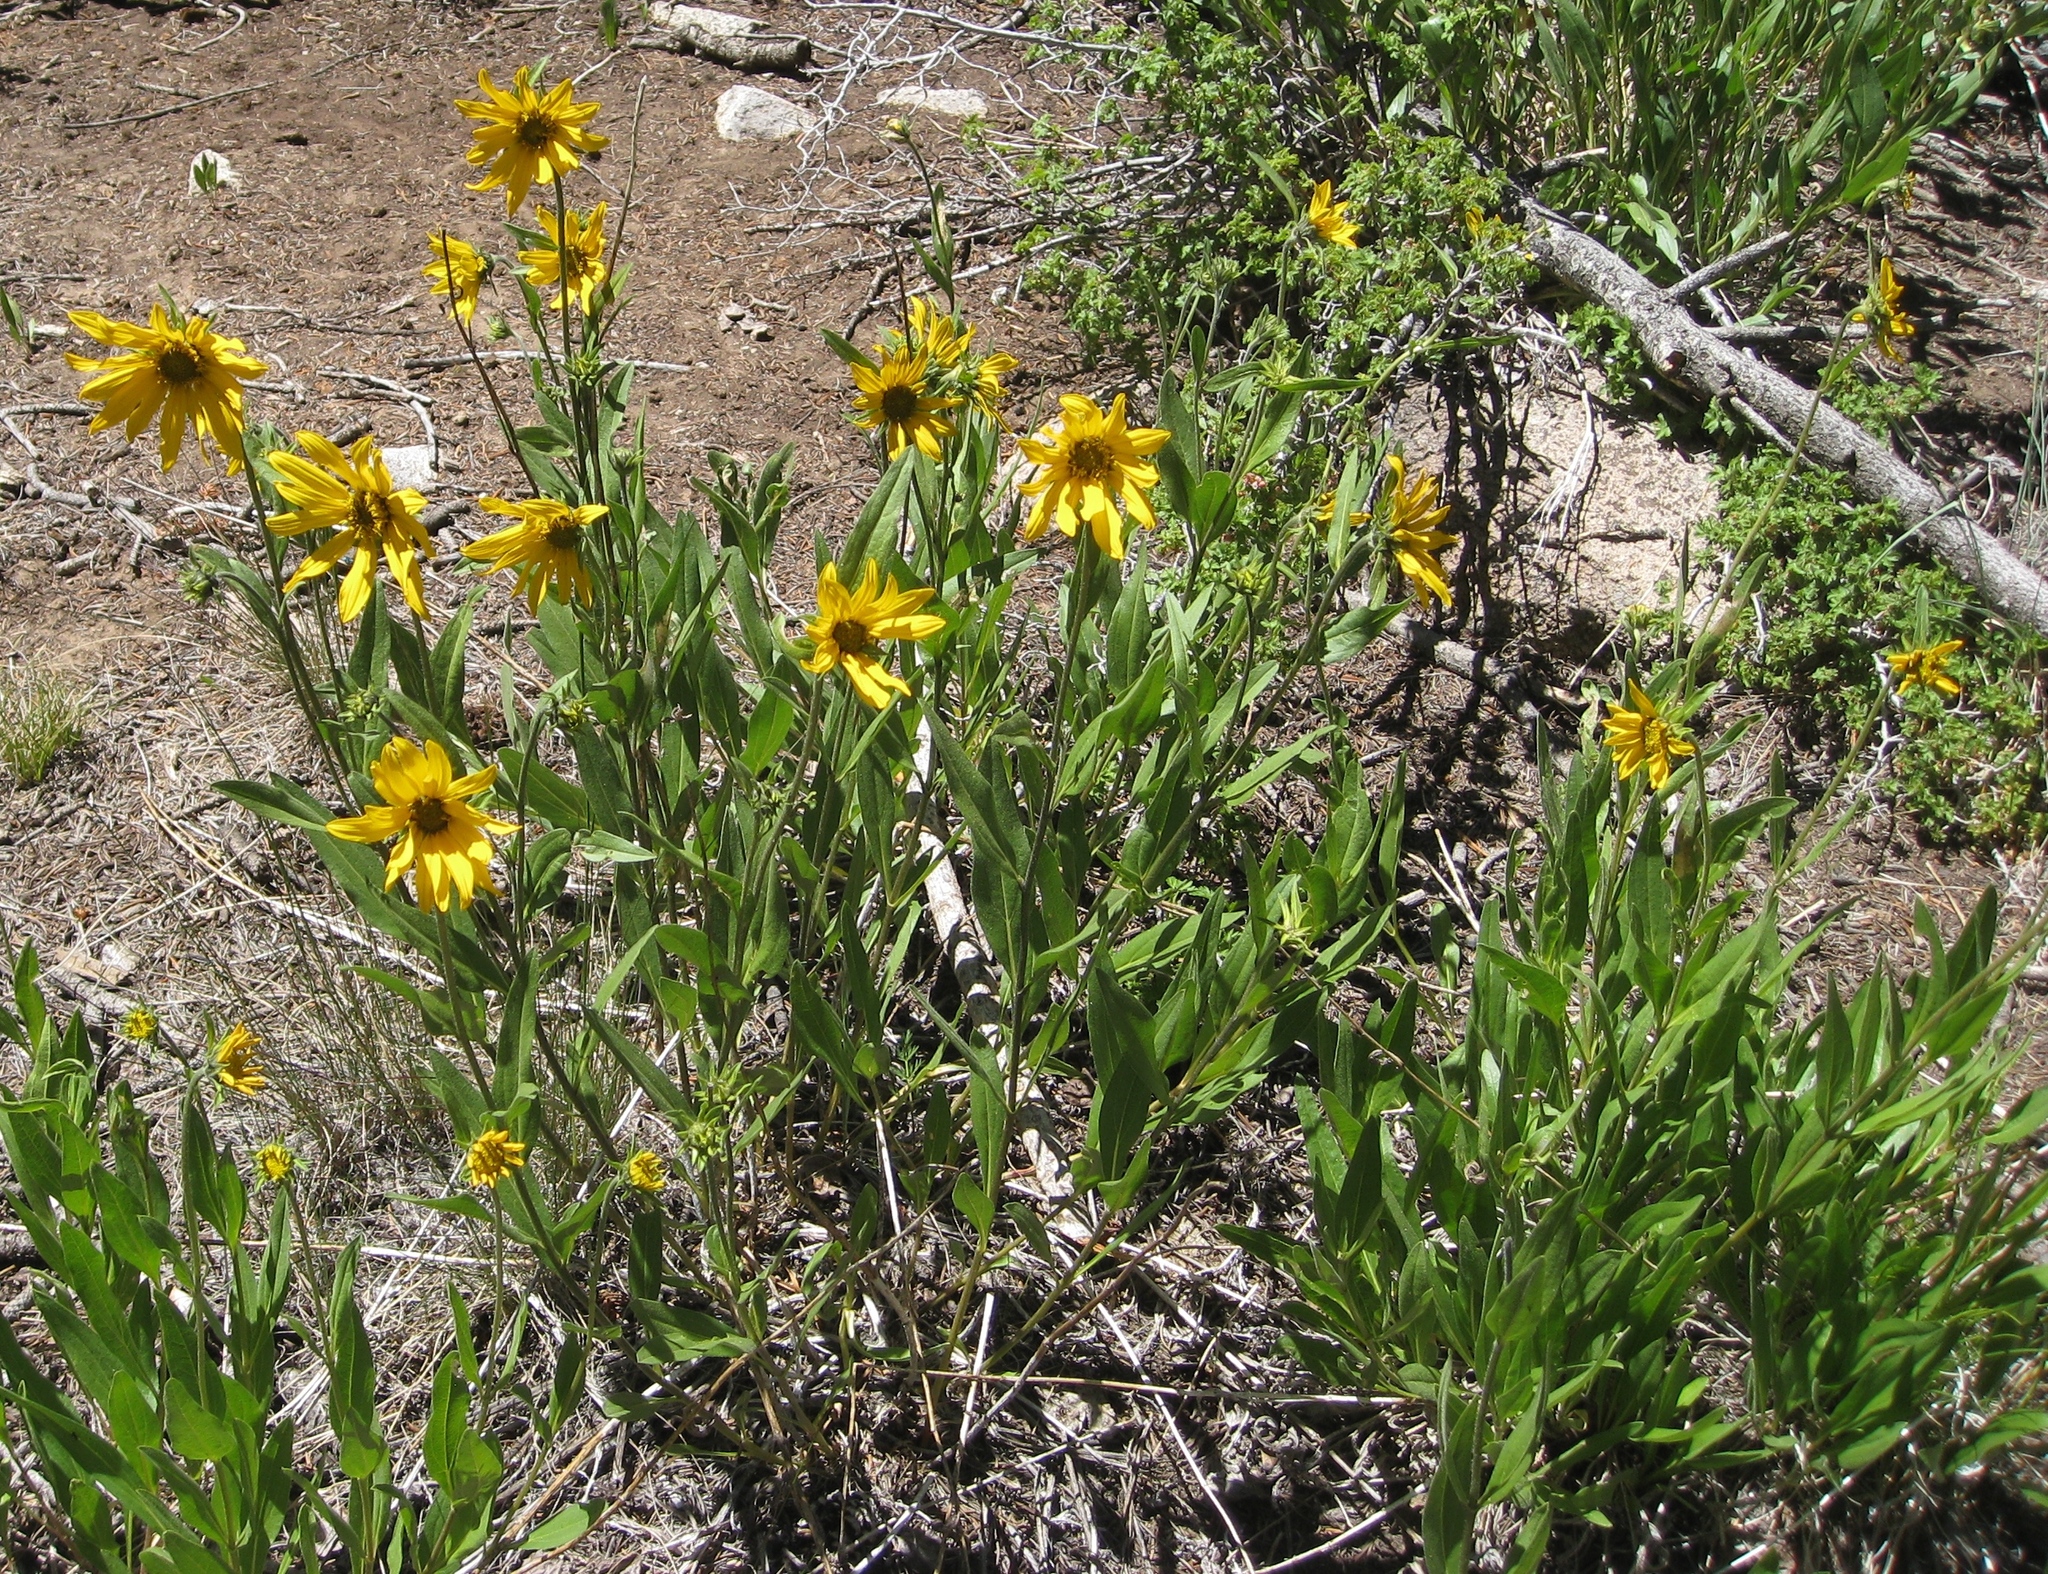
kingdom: Plantae
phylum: Tracheophyta
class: Magnoliopsida
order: Asterales
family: Asteraceae
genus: Helianthella
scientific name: Helianthella uniflora
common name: Rocky mountain dwarf sunflower
